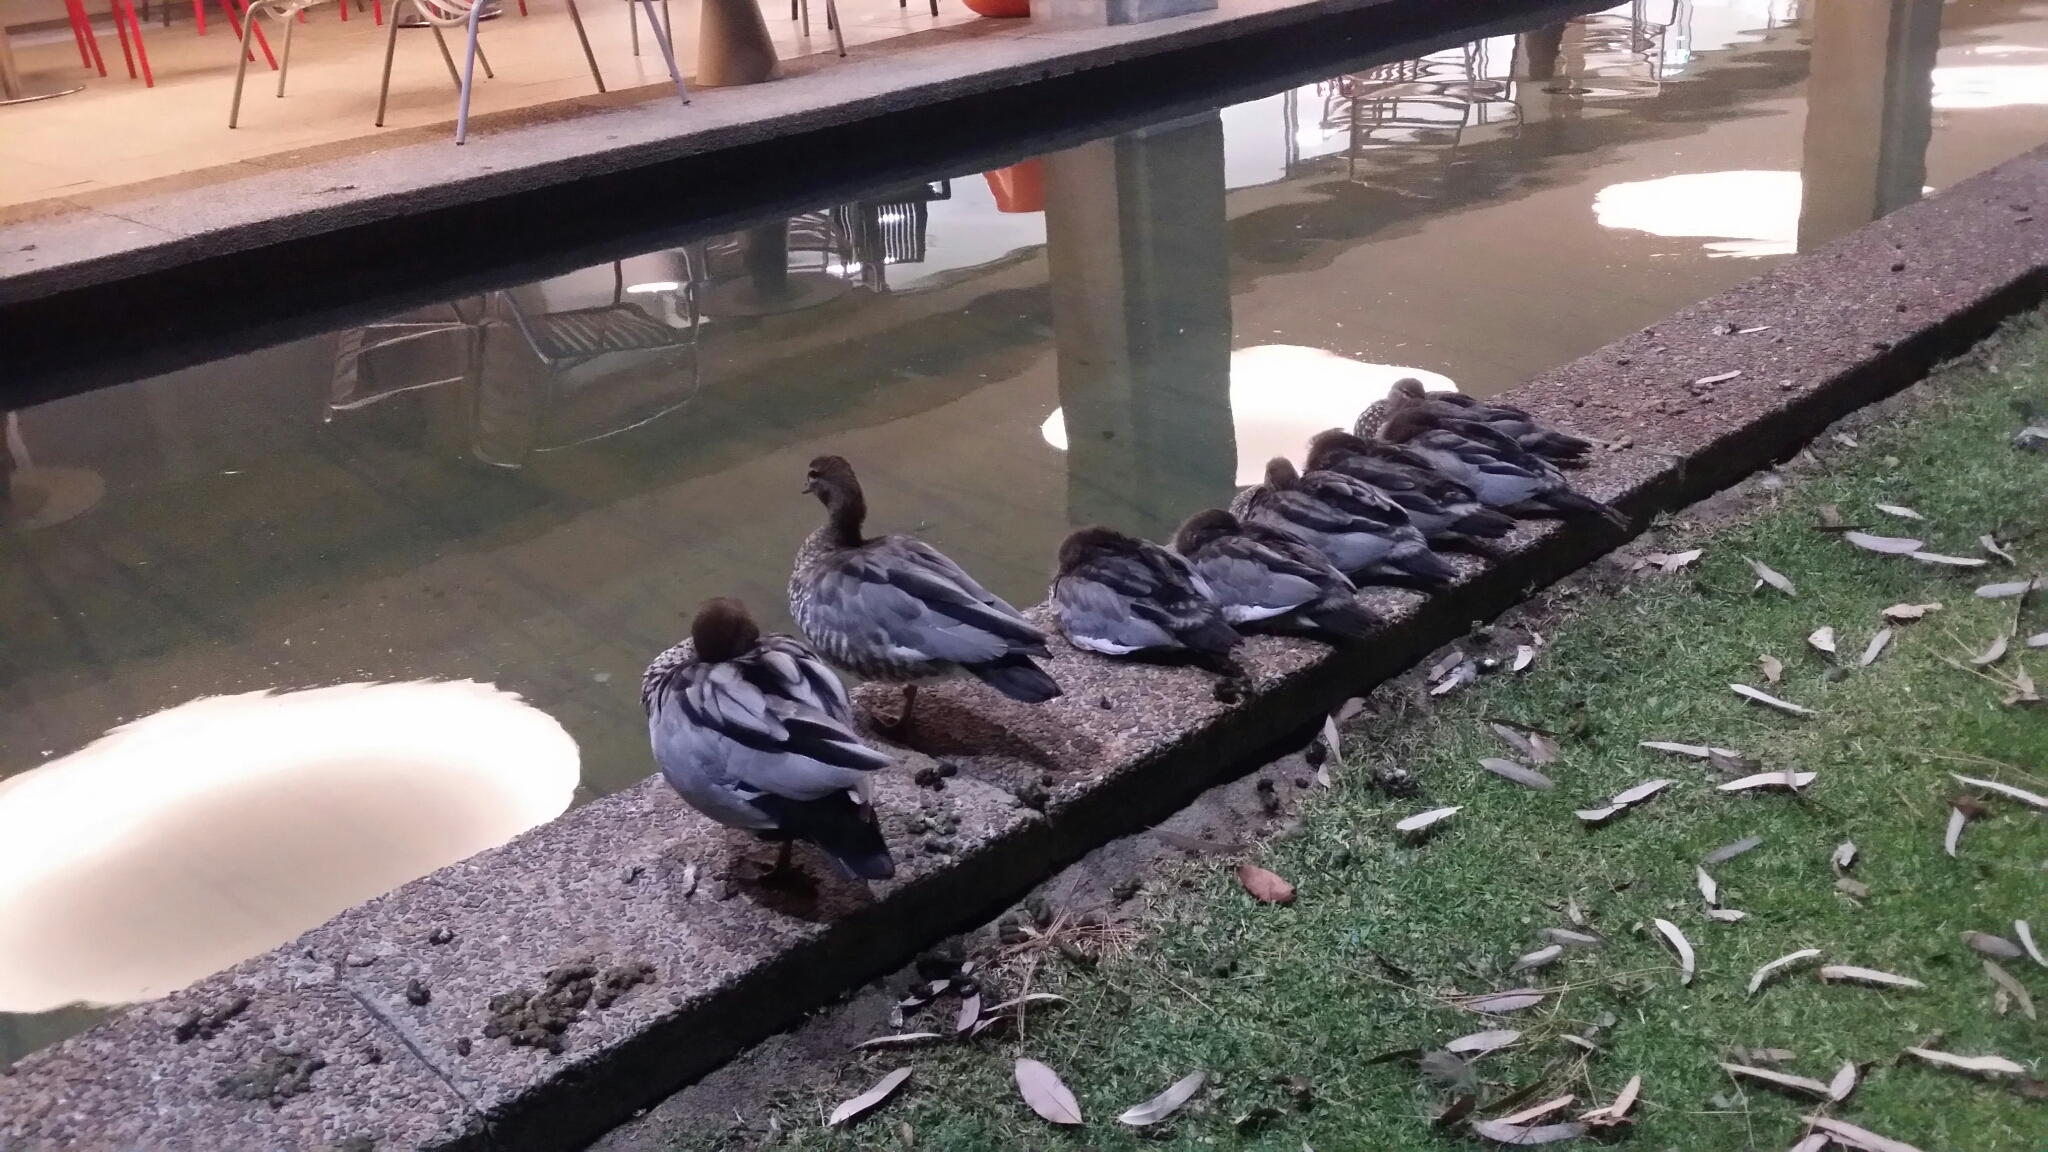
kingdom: Animalia
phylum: Chordata
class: Aves
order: Anseriformes
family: Anatidae
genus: Chenonetta
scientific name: Chenonetta jubata
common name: Maned duck
